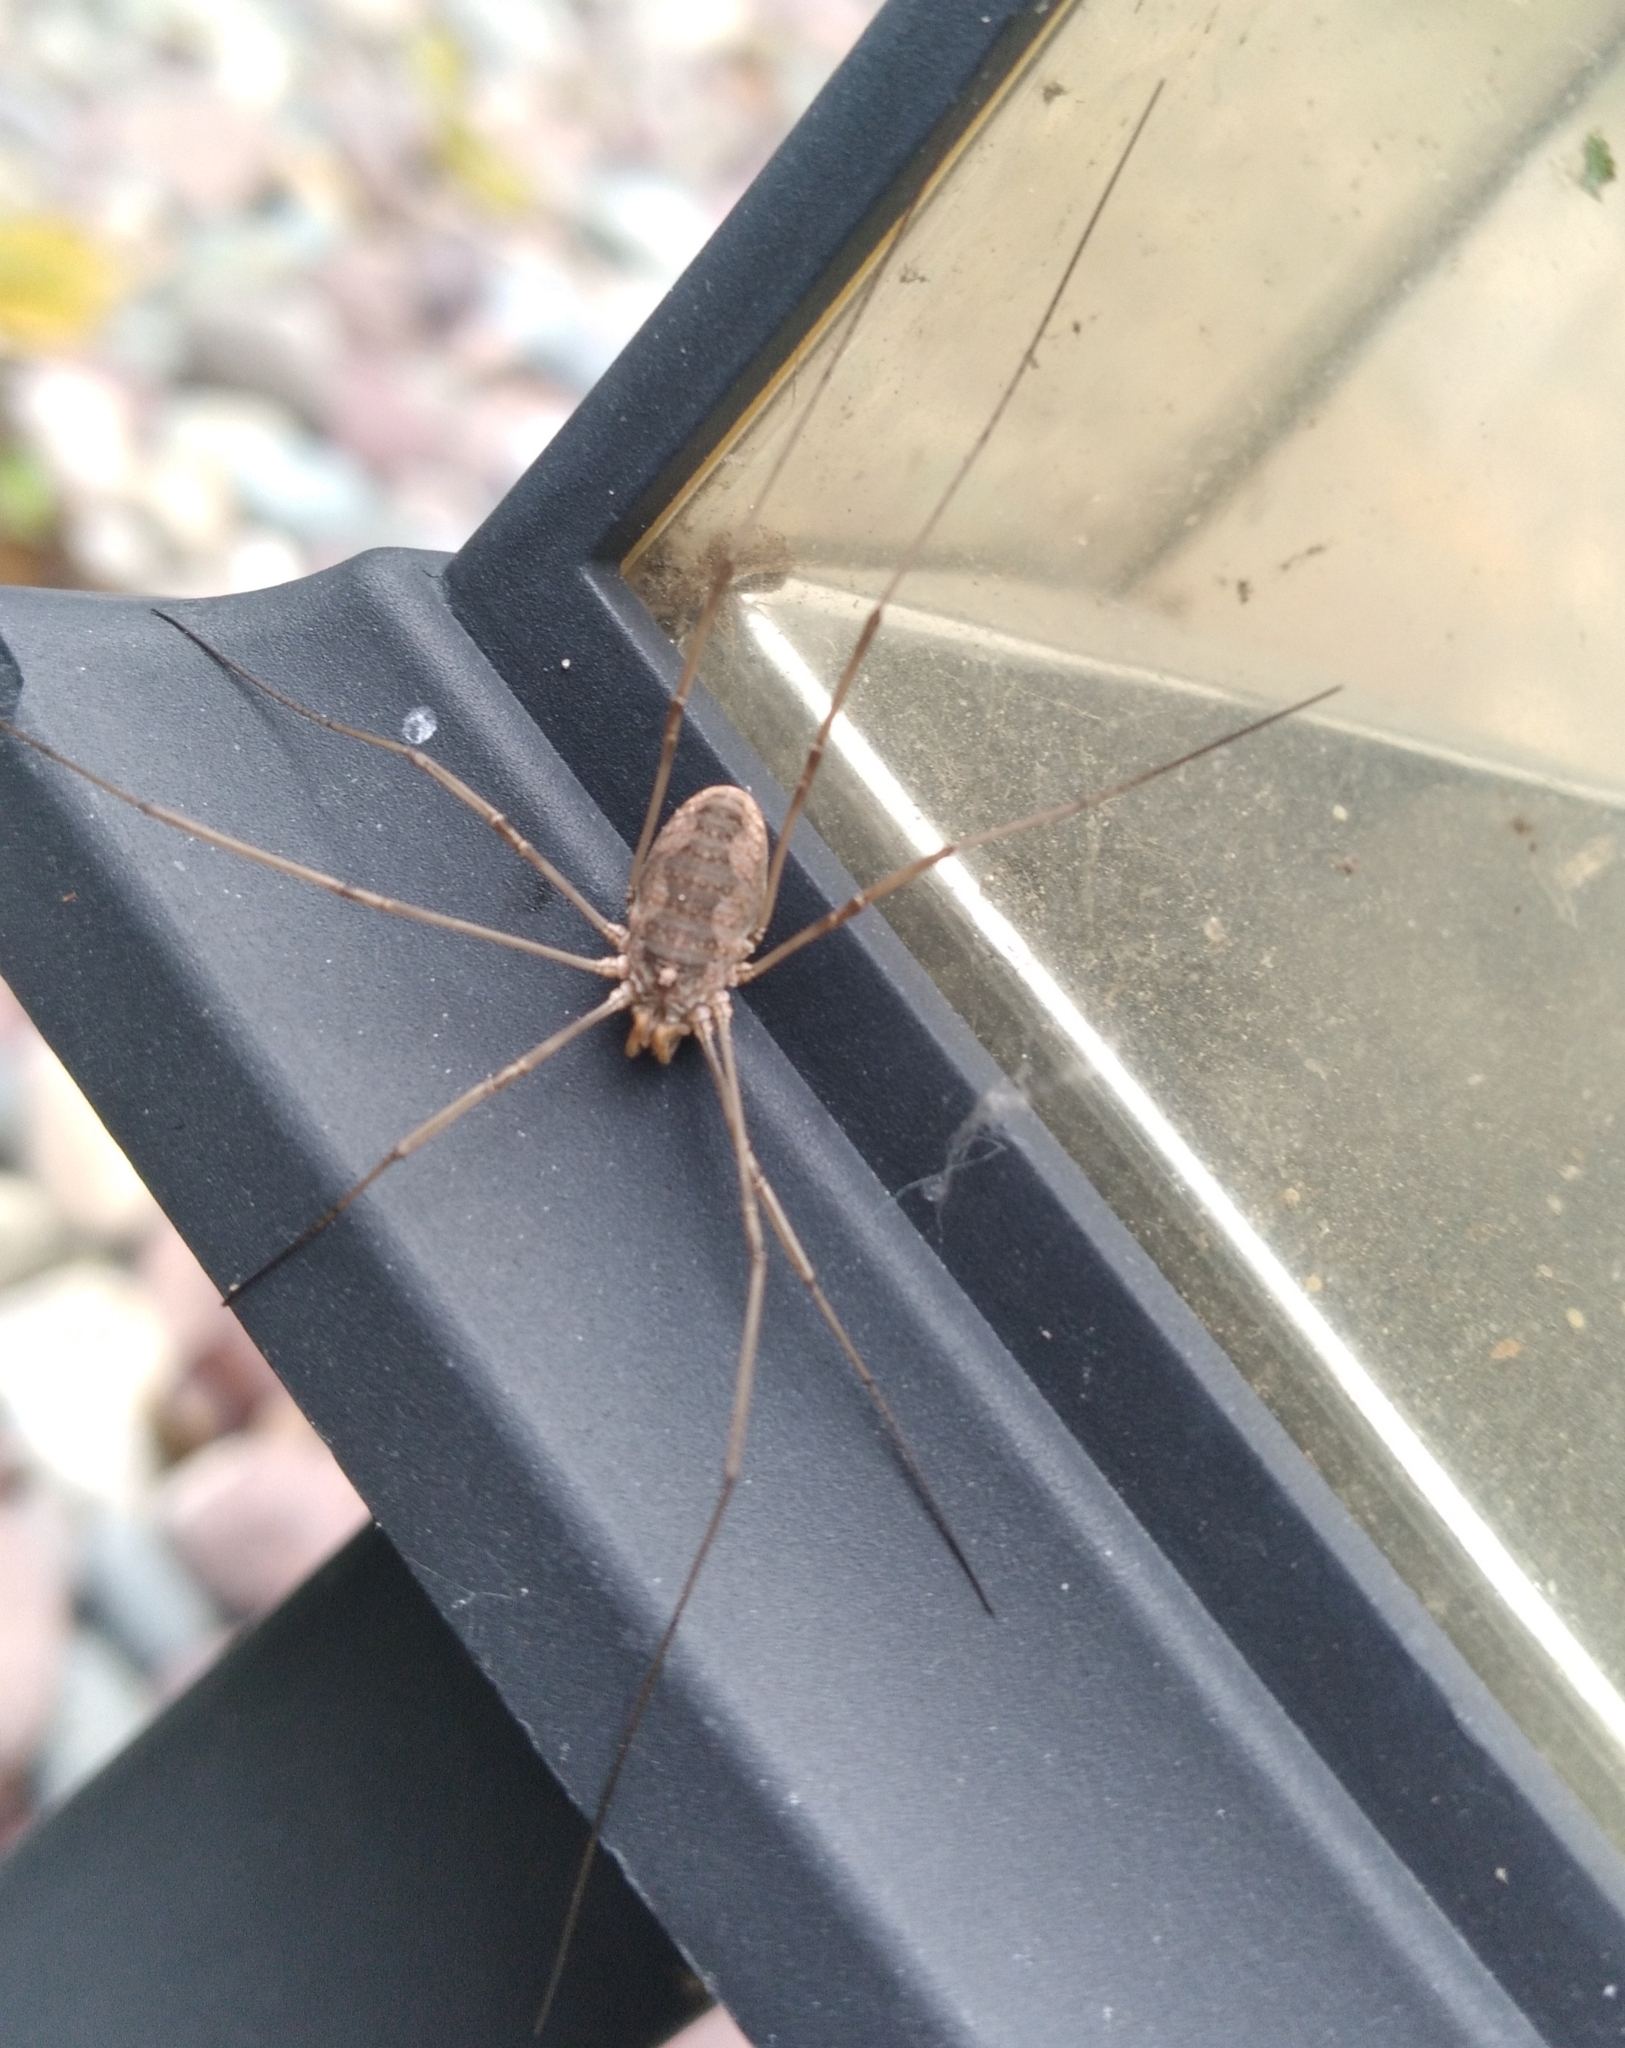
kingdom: Animalia
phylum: Arthropoda
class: Arachnida
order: Opiliones
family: Phalangiidae
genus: Phalangium
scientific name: Phalangium opilio
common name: Daddy longleg
